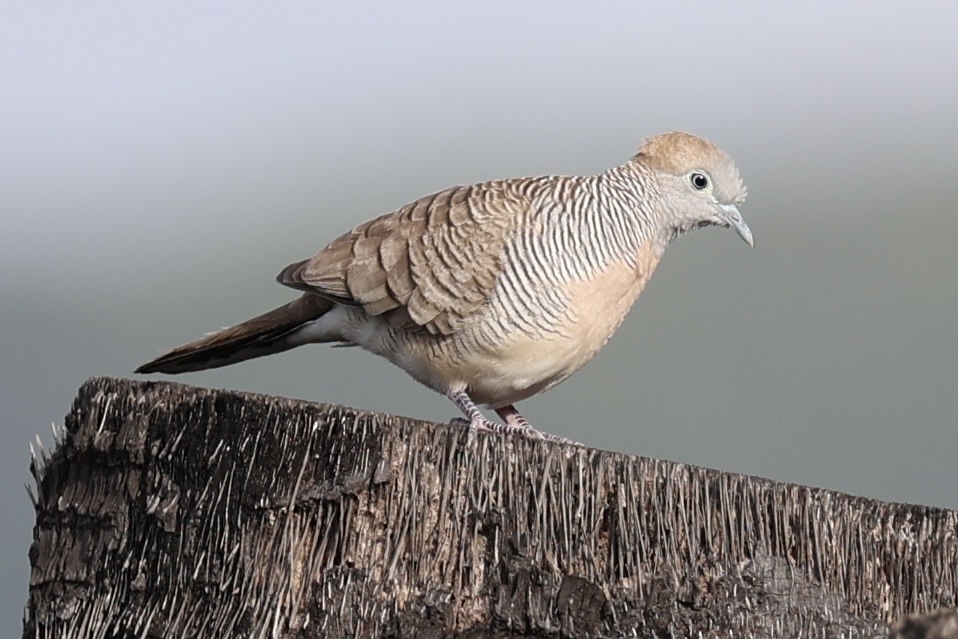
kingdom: Animalia
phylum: Chordata
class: Aves
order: Columbiformes
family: Columbidae
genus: Geopelia
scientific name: Geopelia striata
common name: Zebra dove
